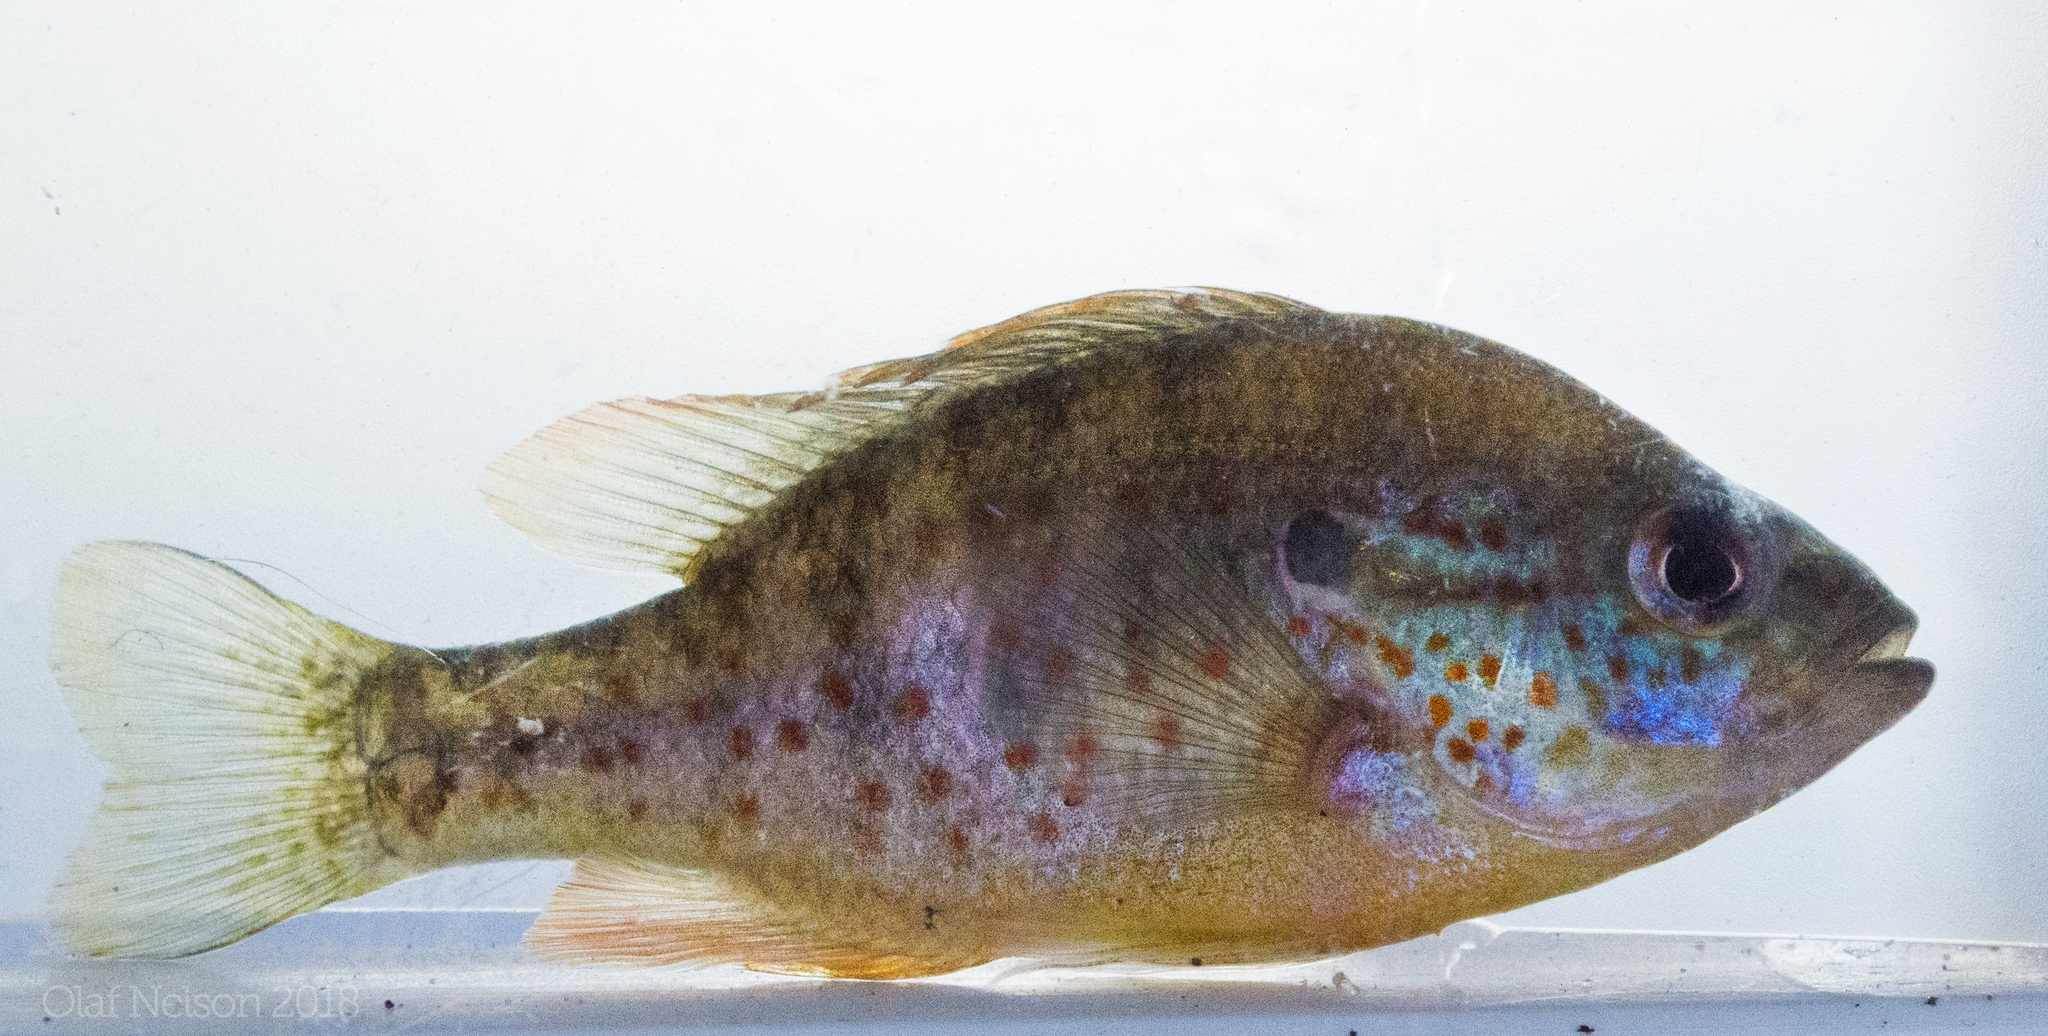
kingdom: Animalia
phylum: Chordata
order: Perciformes
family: Centrarchidae
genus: Lepomis
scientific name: Lepomis humilis
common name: Orangespotted sunfish
